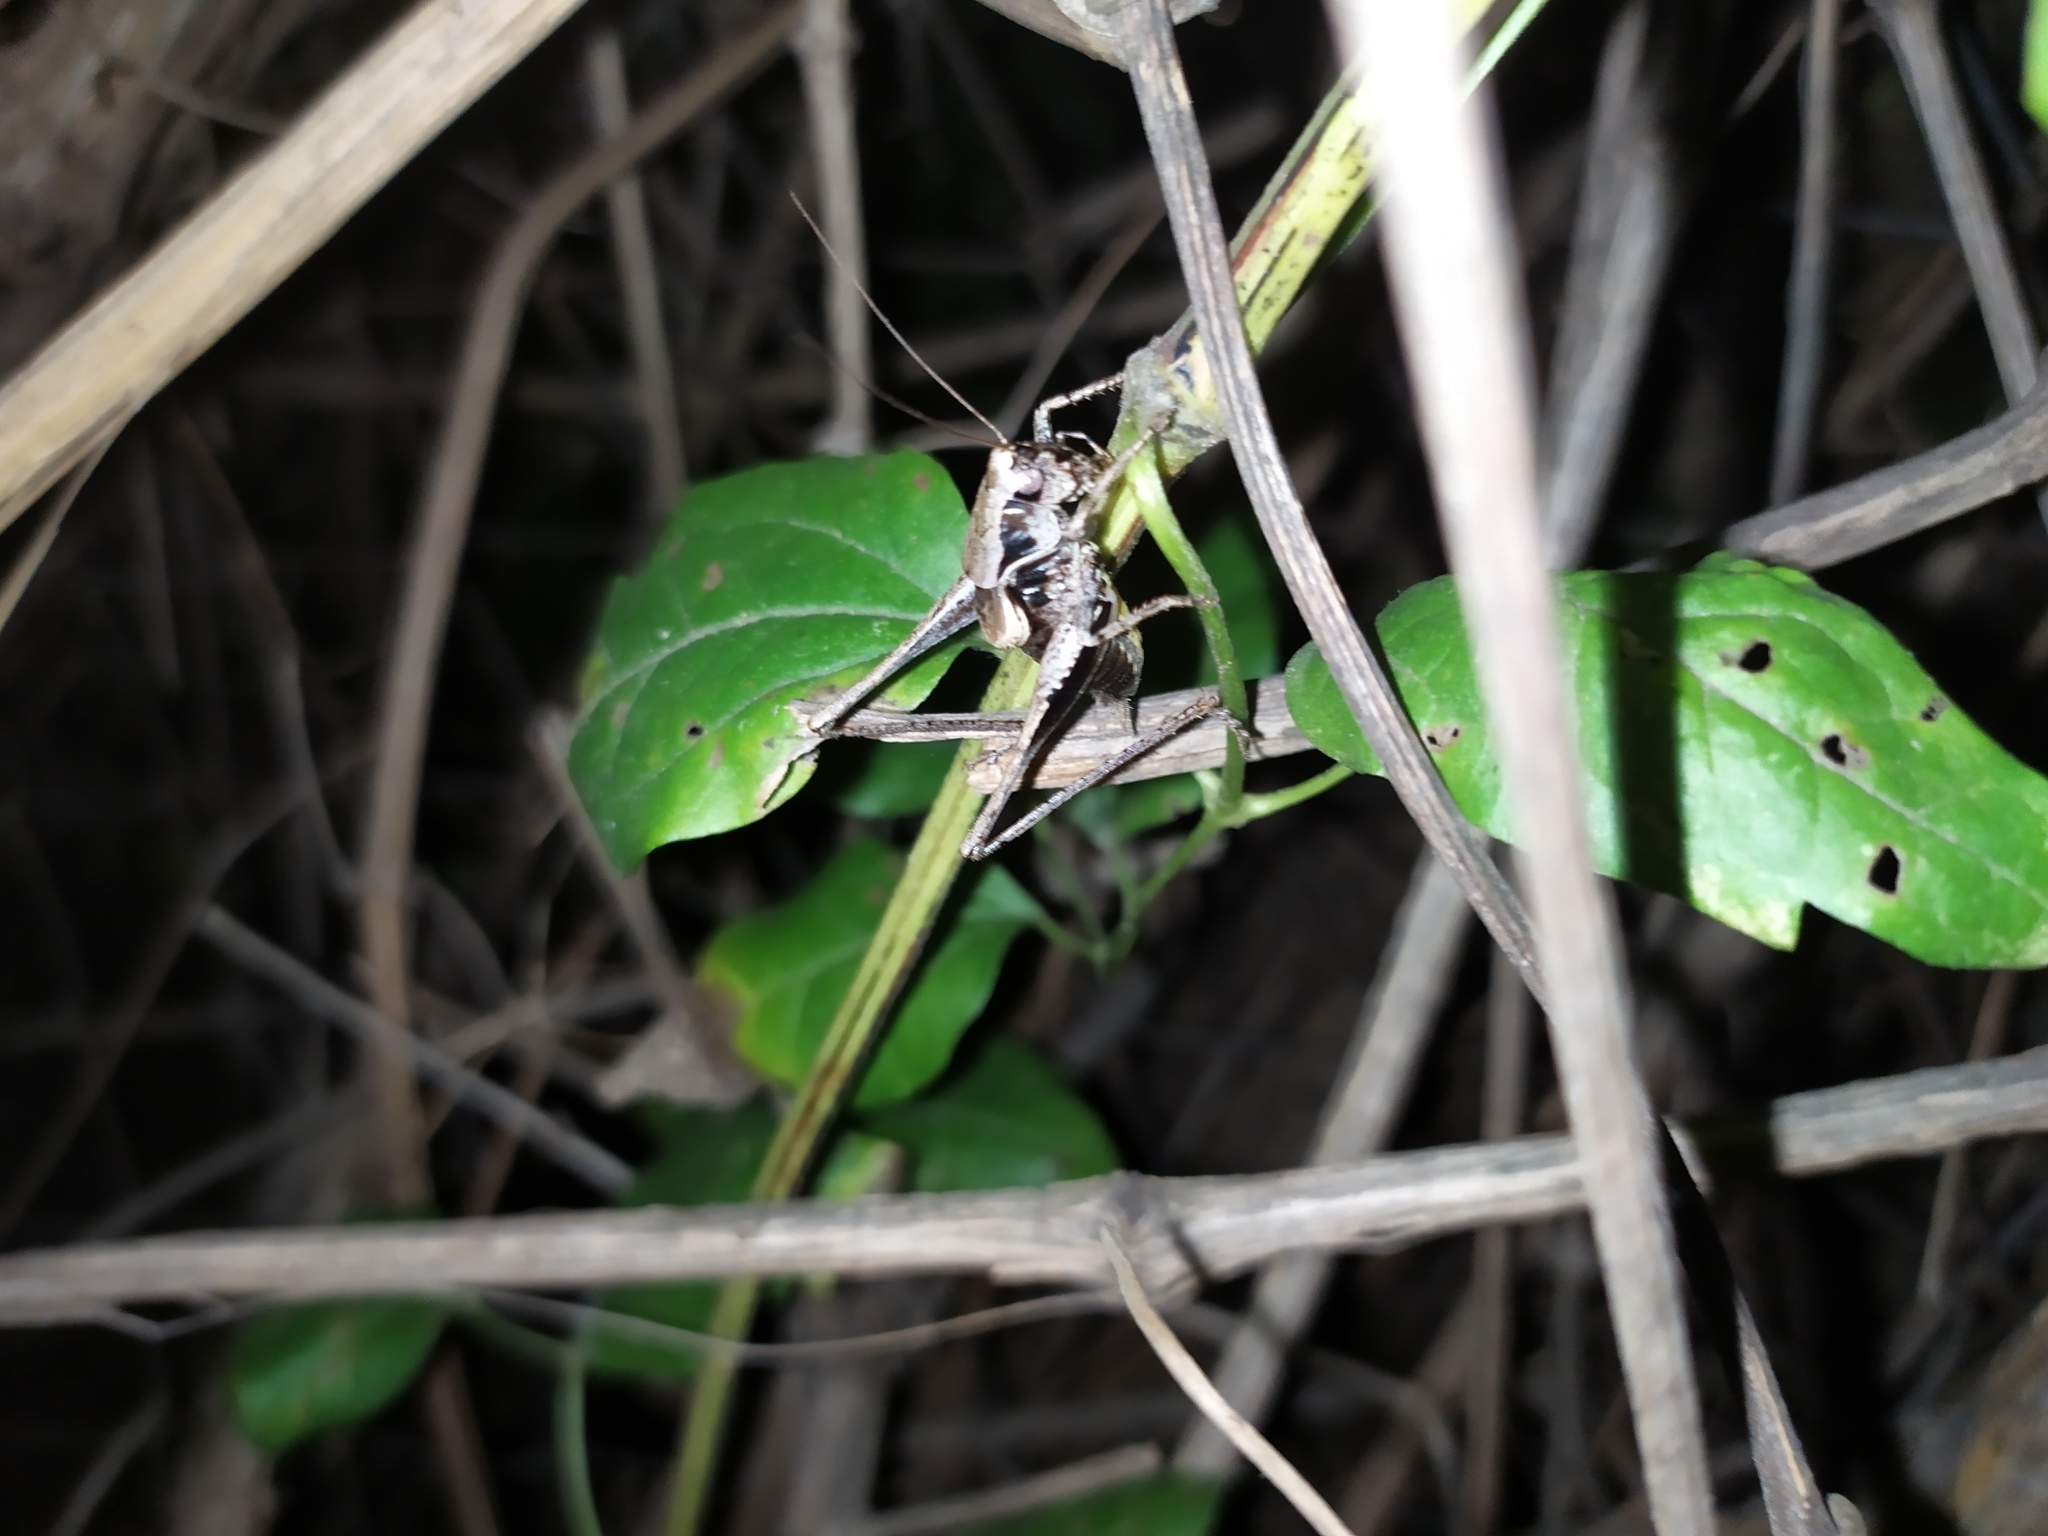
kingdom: Animalia
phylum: Arthropoda
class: Insecta
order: Orthoptera
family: Tettigoniidae
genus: Pholidoptera
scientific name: Pholidoptera griseoaptera
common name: Dark bush-cricket
